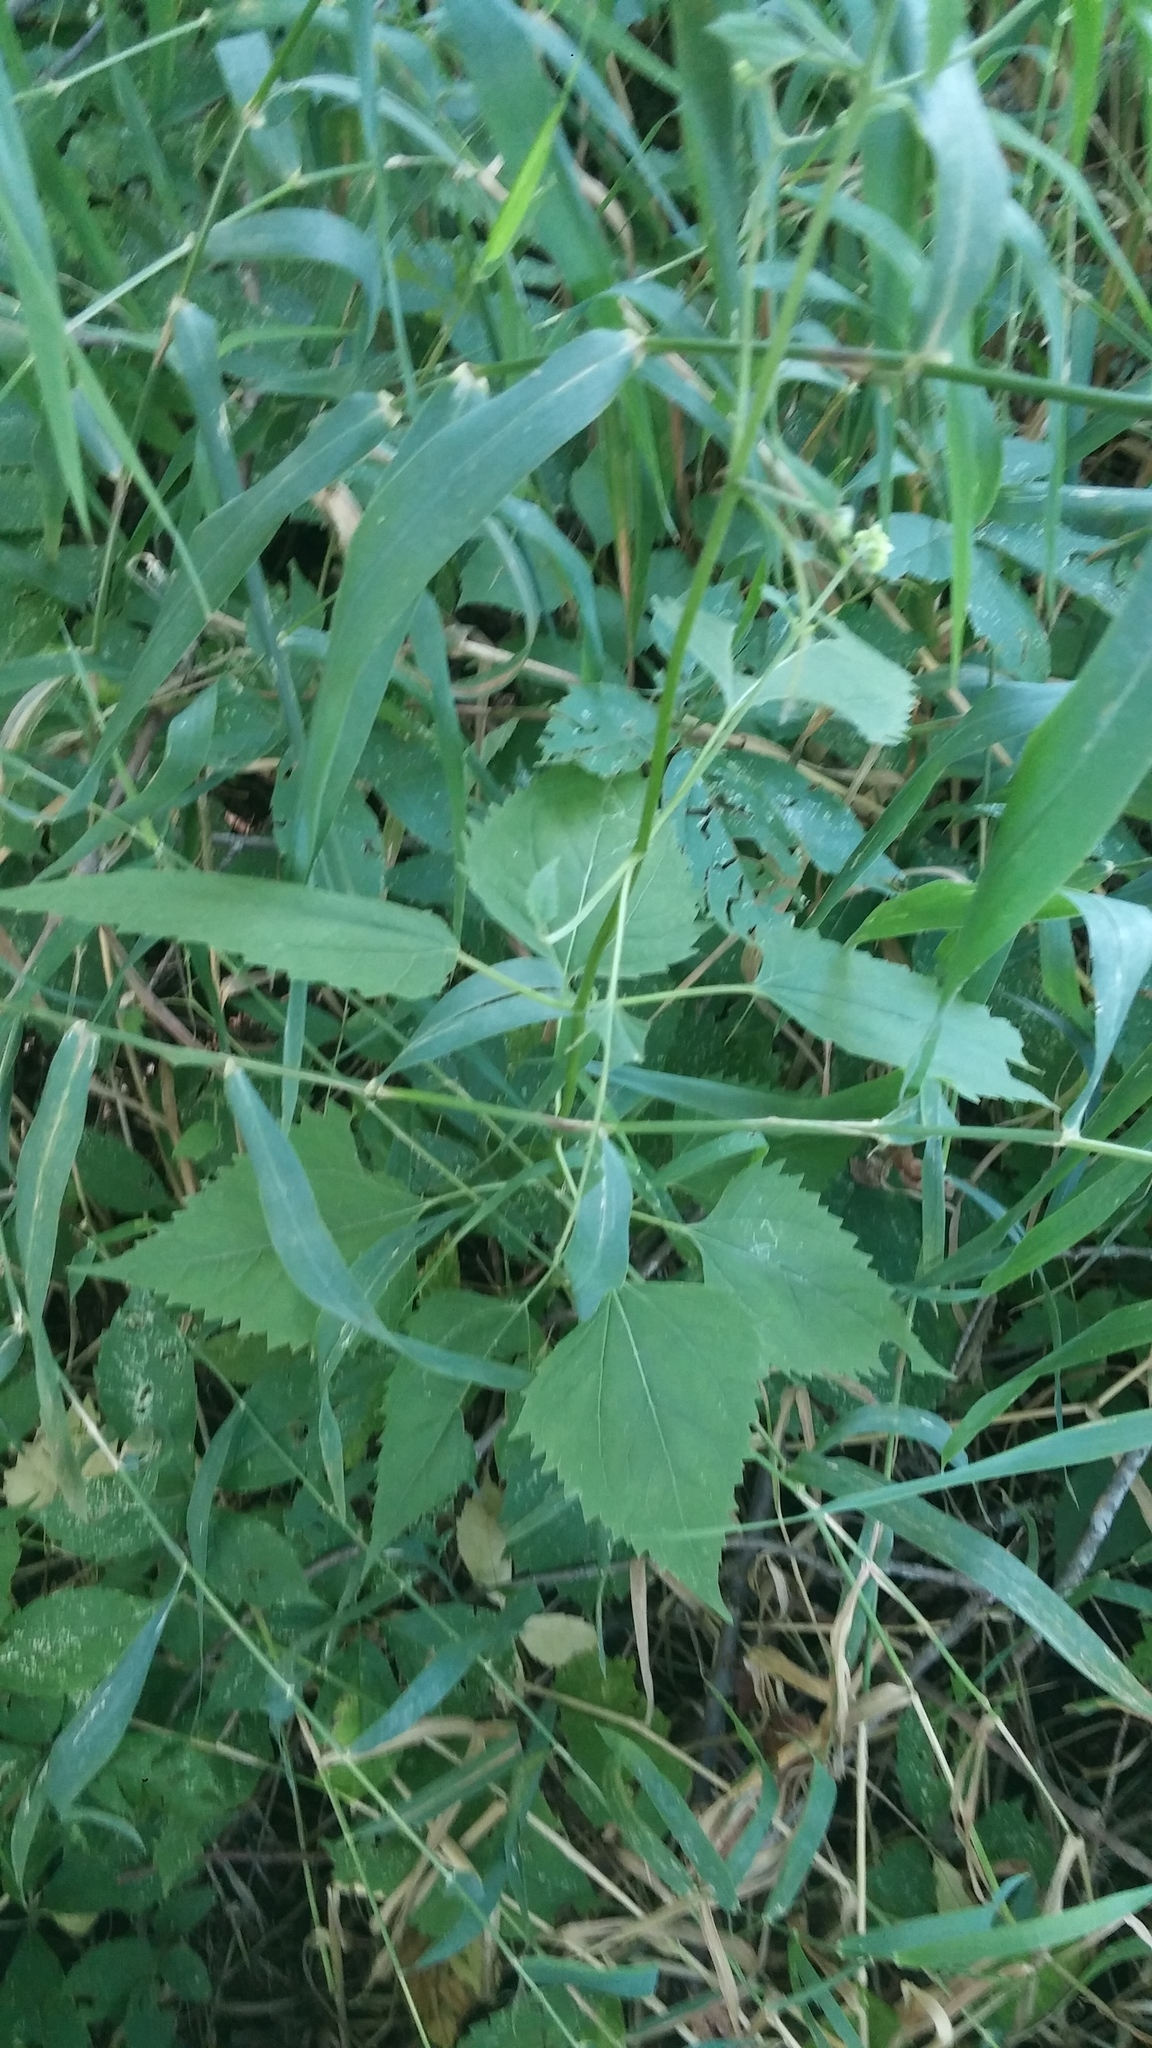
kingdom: Plantae
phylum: Tracheophyta
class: Magnoliopsida
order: Asterales
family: Asteraceae
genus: Ageratina
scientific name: Ageratina altissima
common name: White snakeroot
